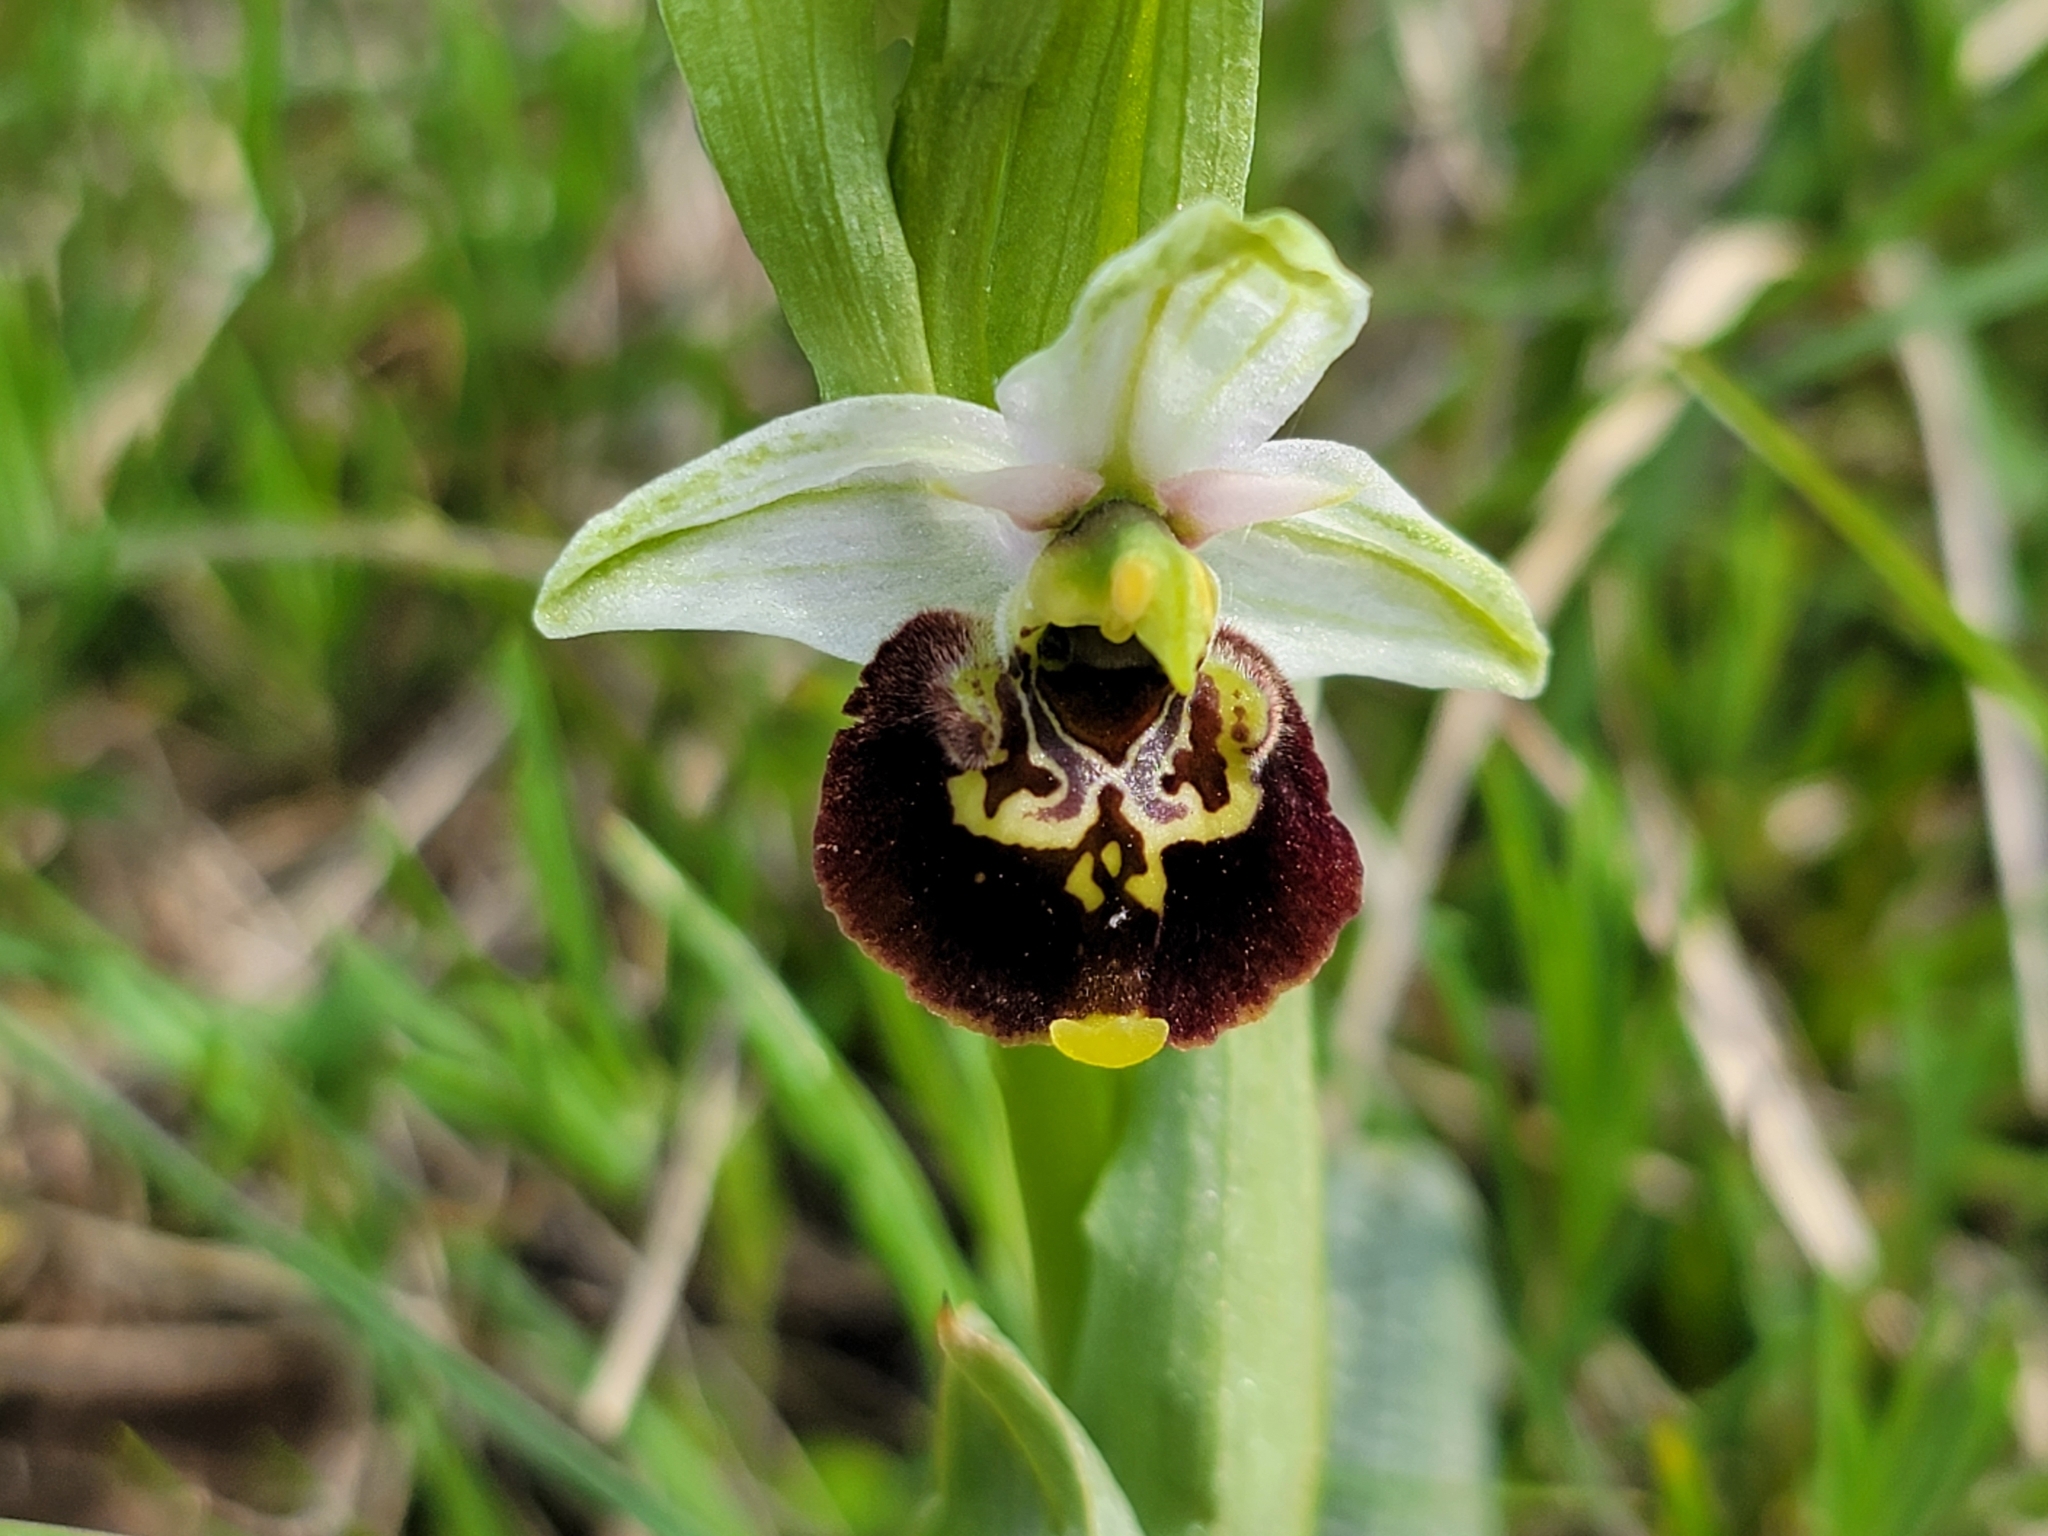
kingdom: Plantae
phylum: Tracheophyta
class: Liliopsida
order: Asparagales
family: Orchidaceae
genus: Ophrys
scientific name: Ophrys holosericea
